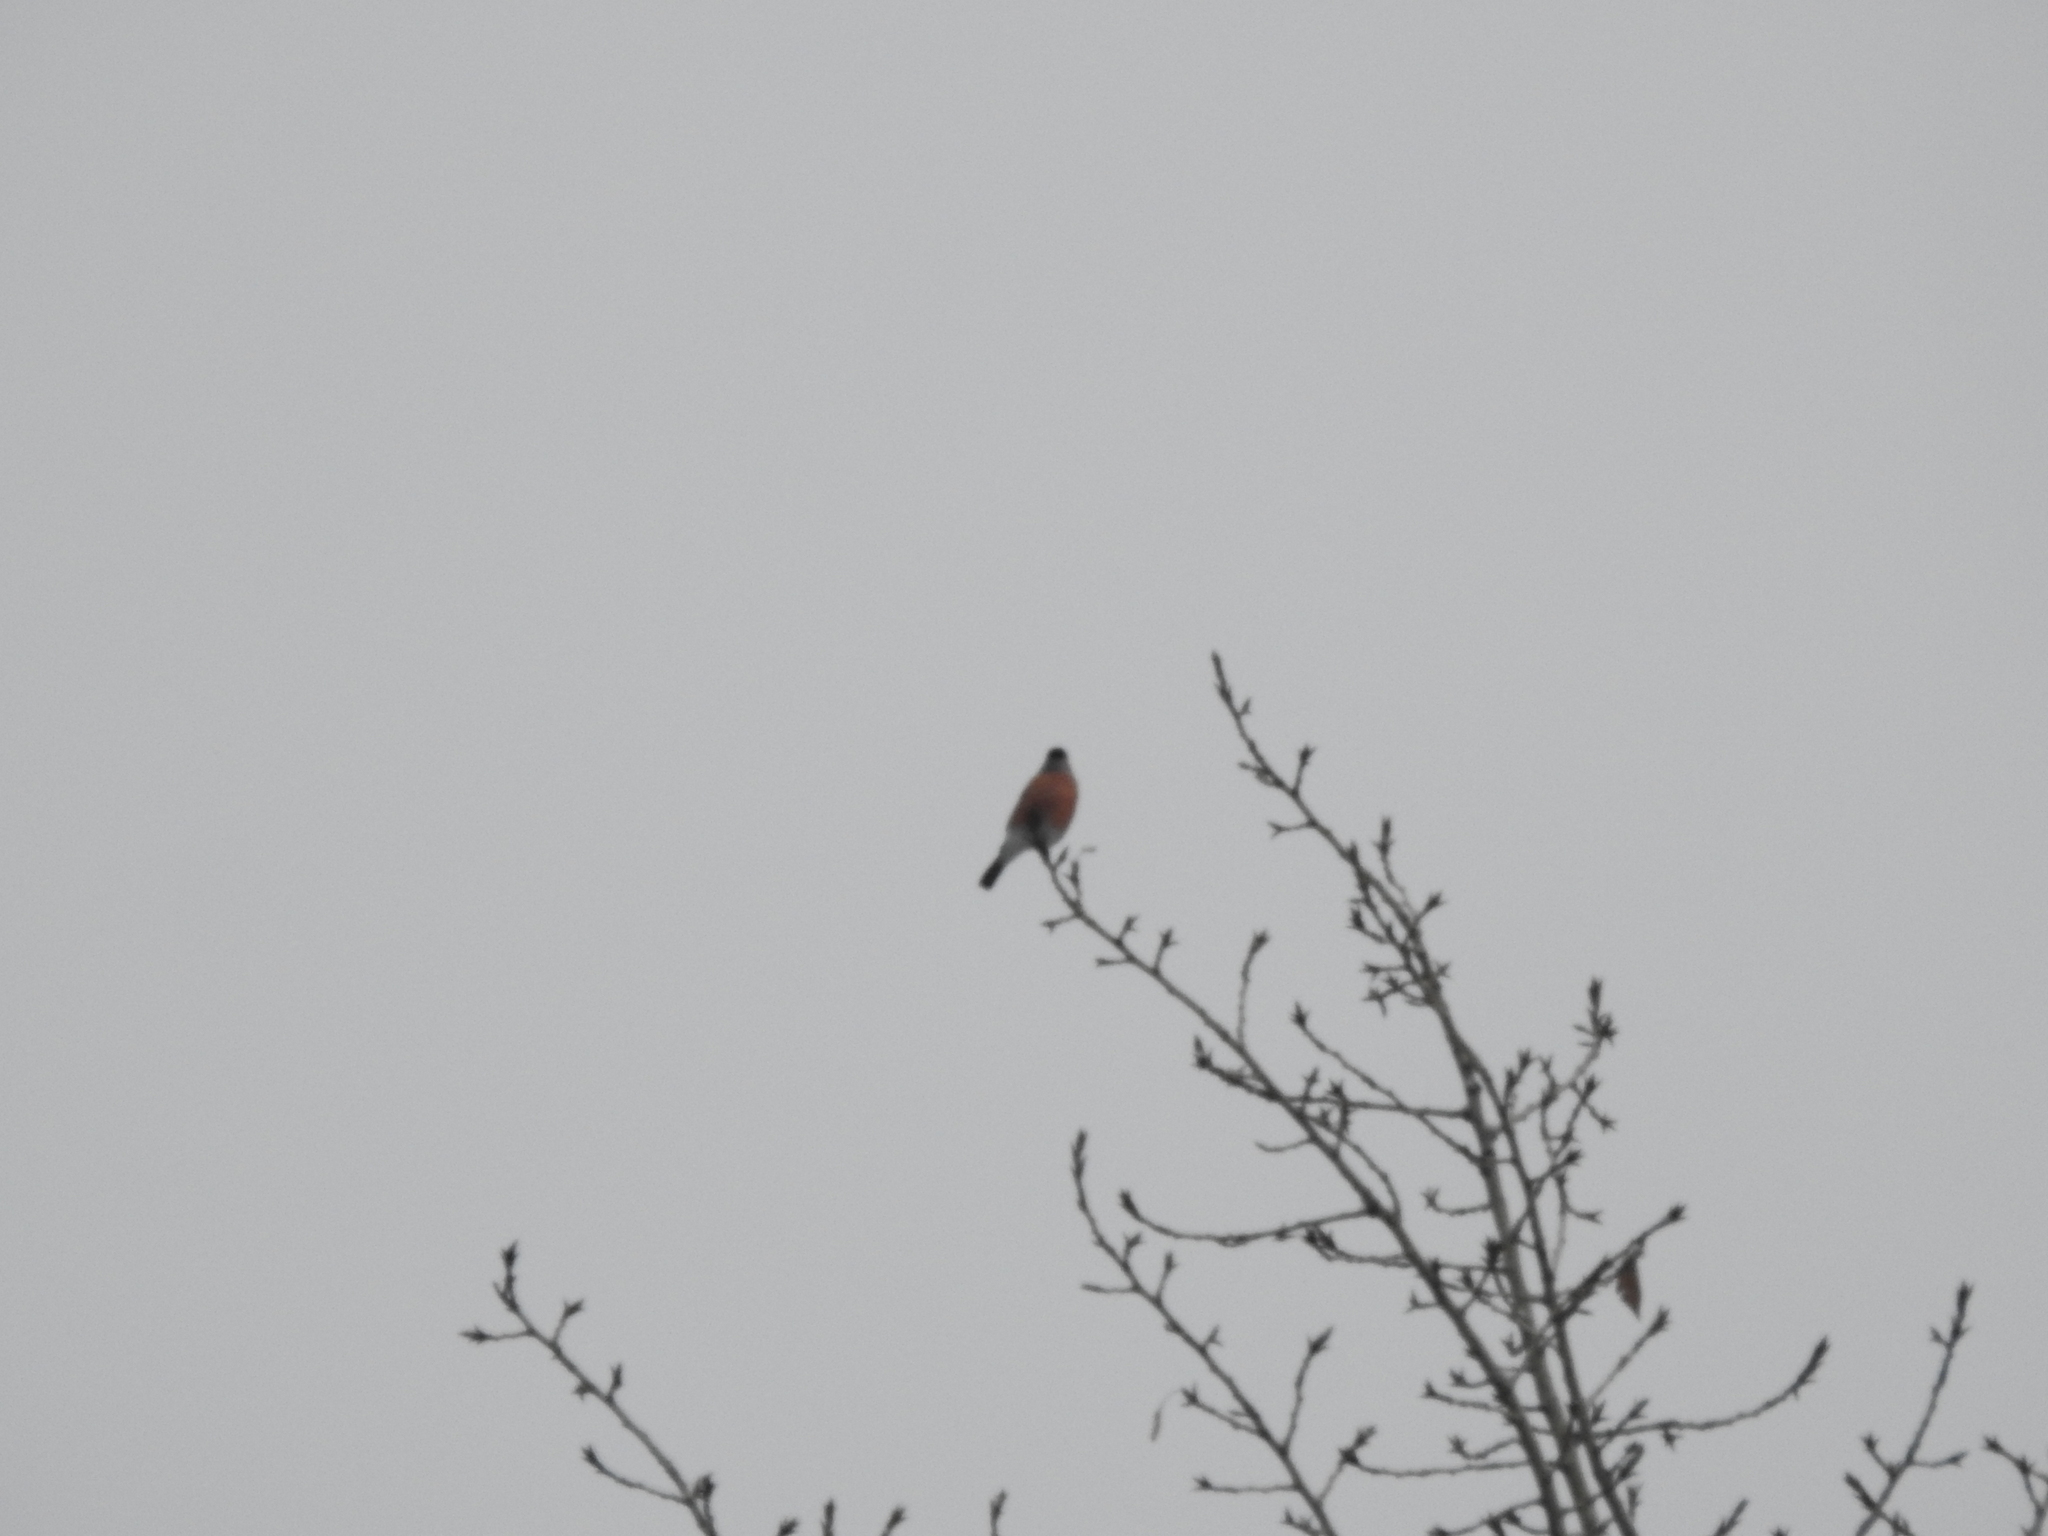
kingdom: Animalia
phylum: Chordata
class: Aves
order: Passeriformes
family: Fringillidae
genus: Pyrrhula
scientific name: Pyrrhula pyrrhula
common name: Eurasian bullfinch
